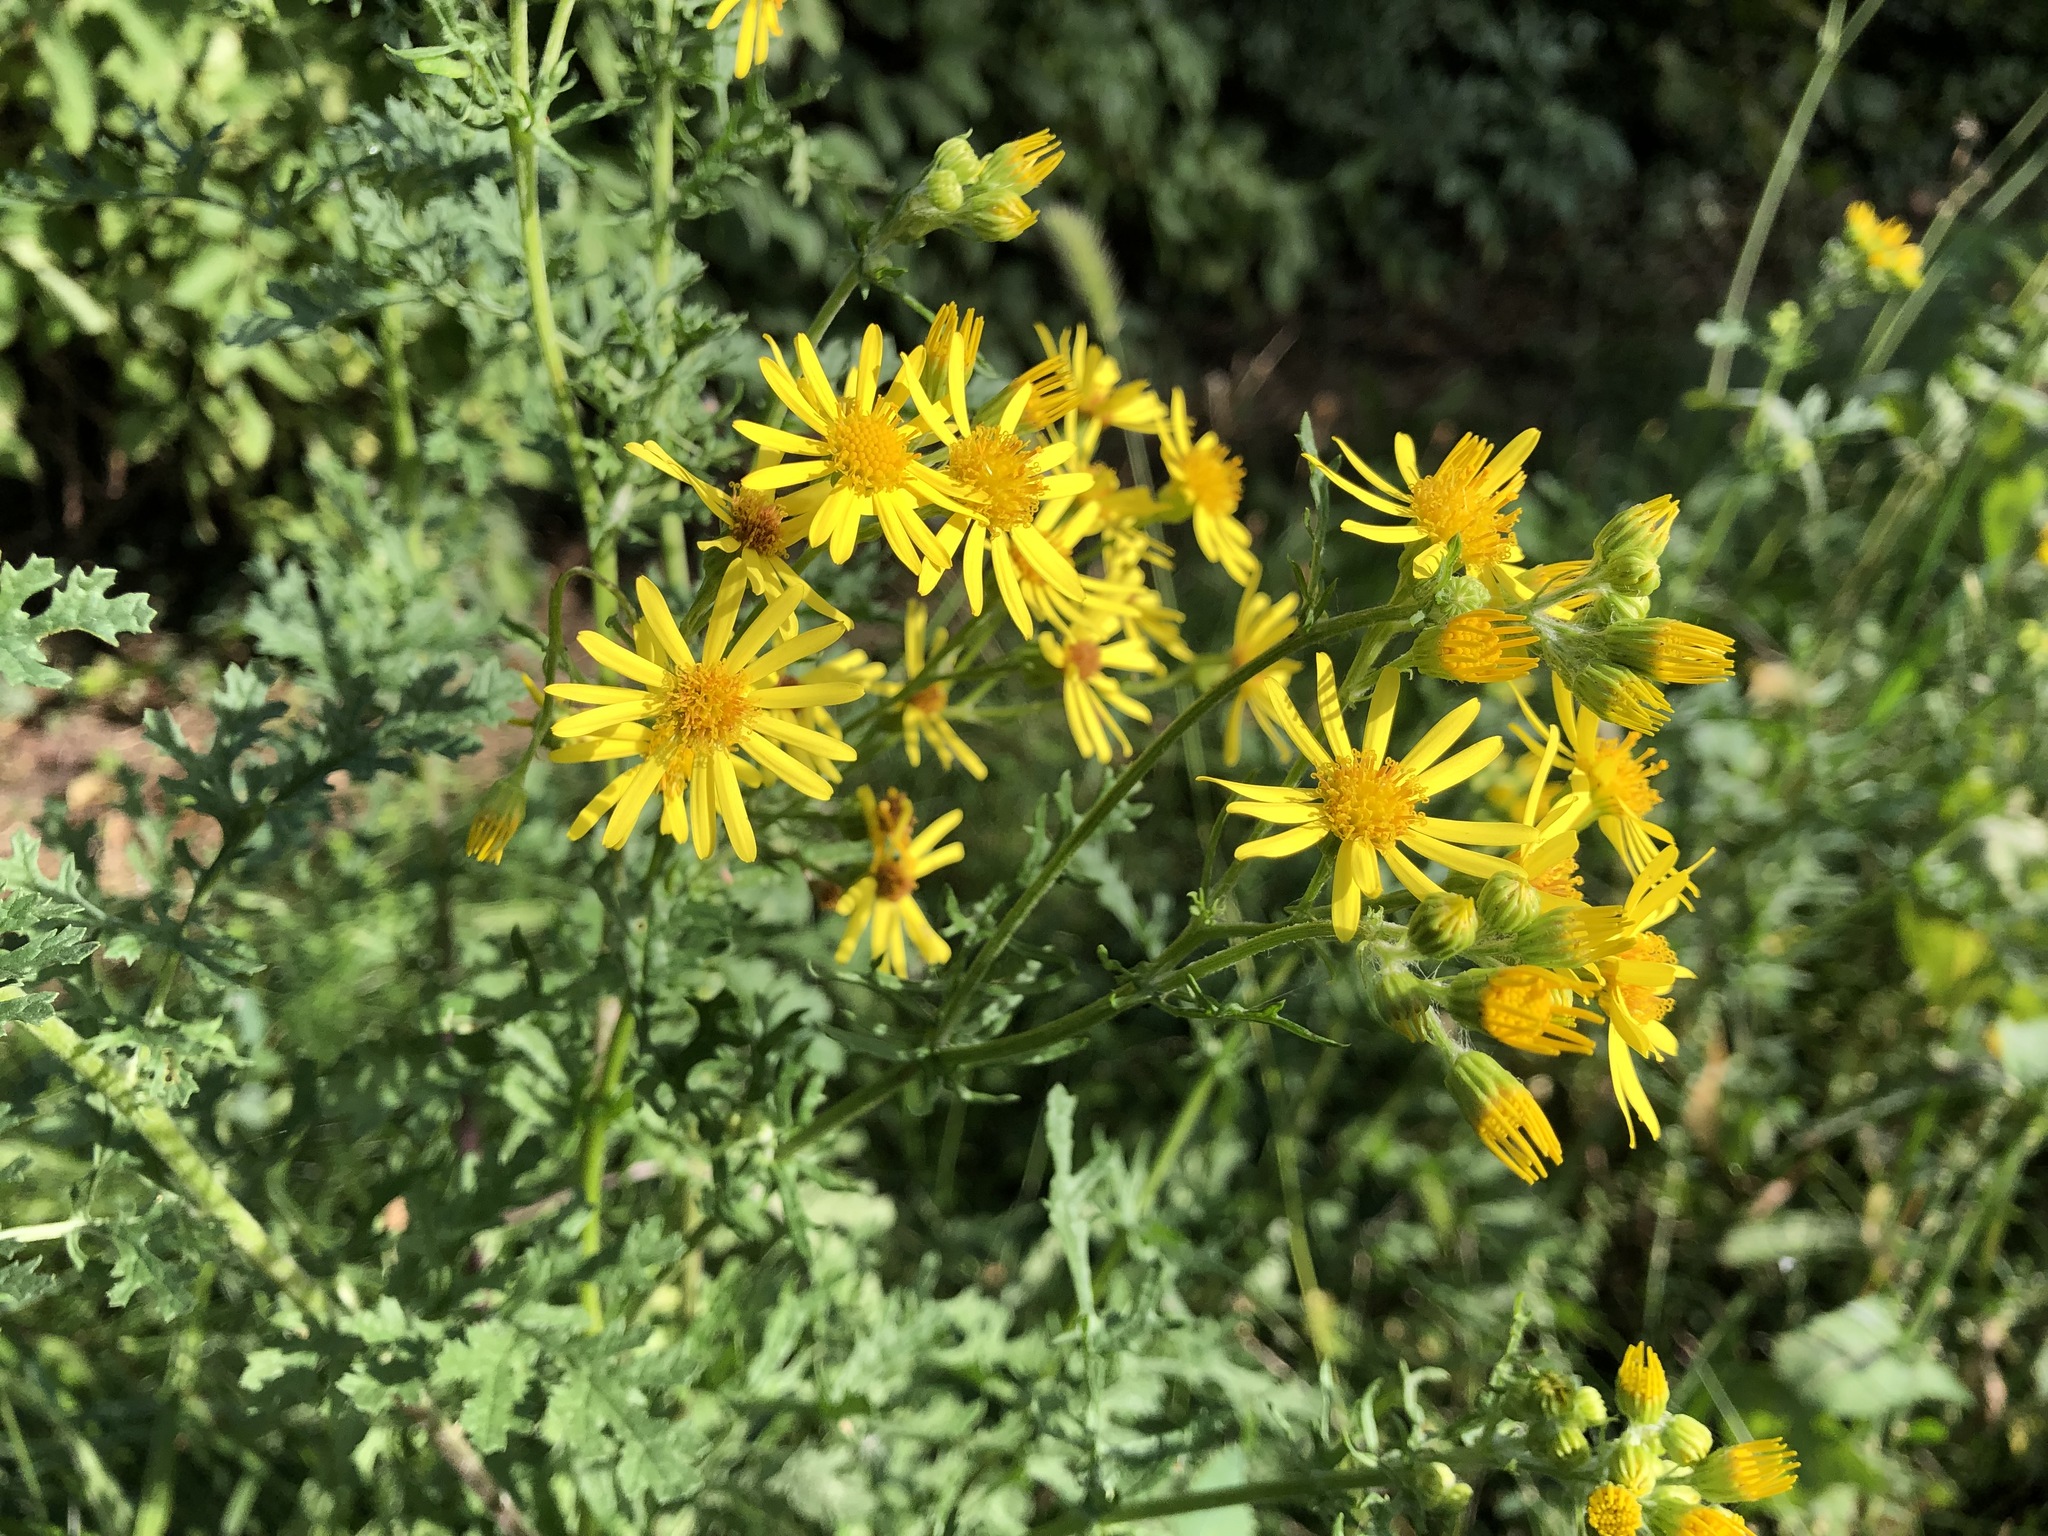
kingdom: Plantae
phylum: Tracheophyta
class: Magnoliopsida
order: Asterales
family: Asteraceae
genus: Jacobaea
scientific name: Jacobaea vulgaris
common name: Stinking willie
